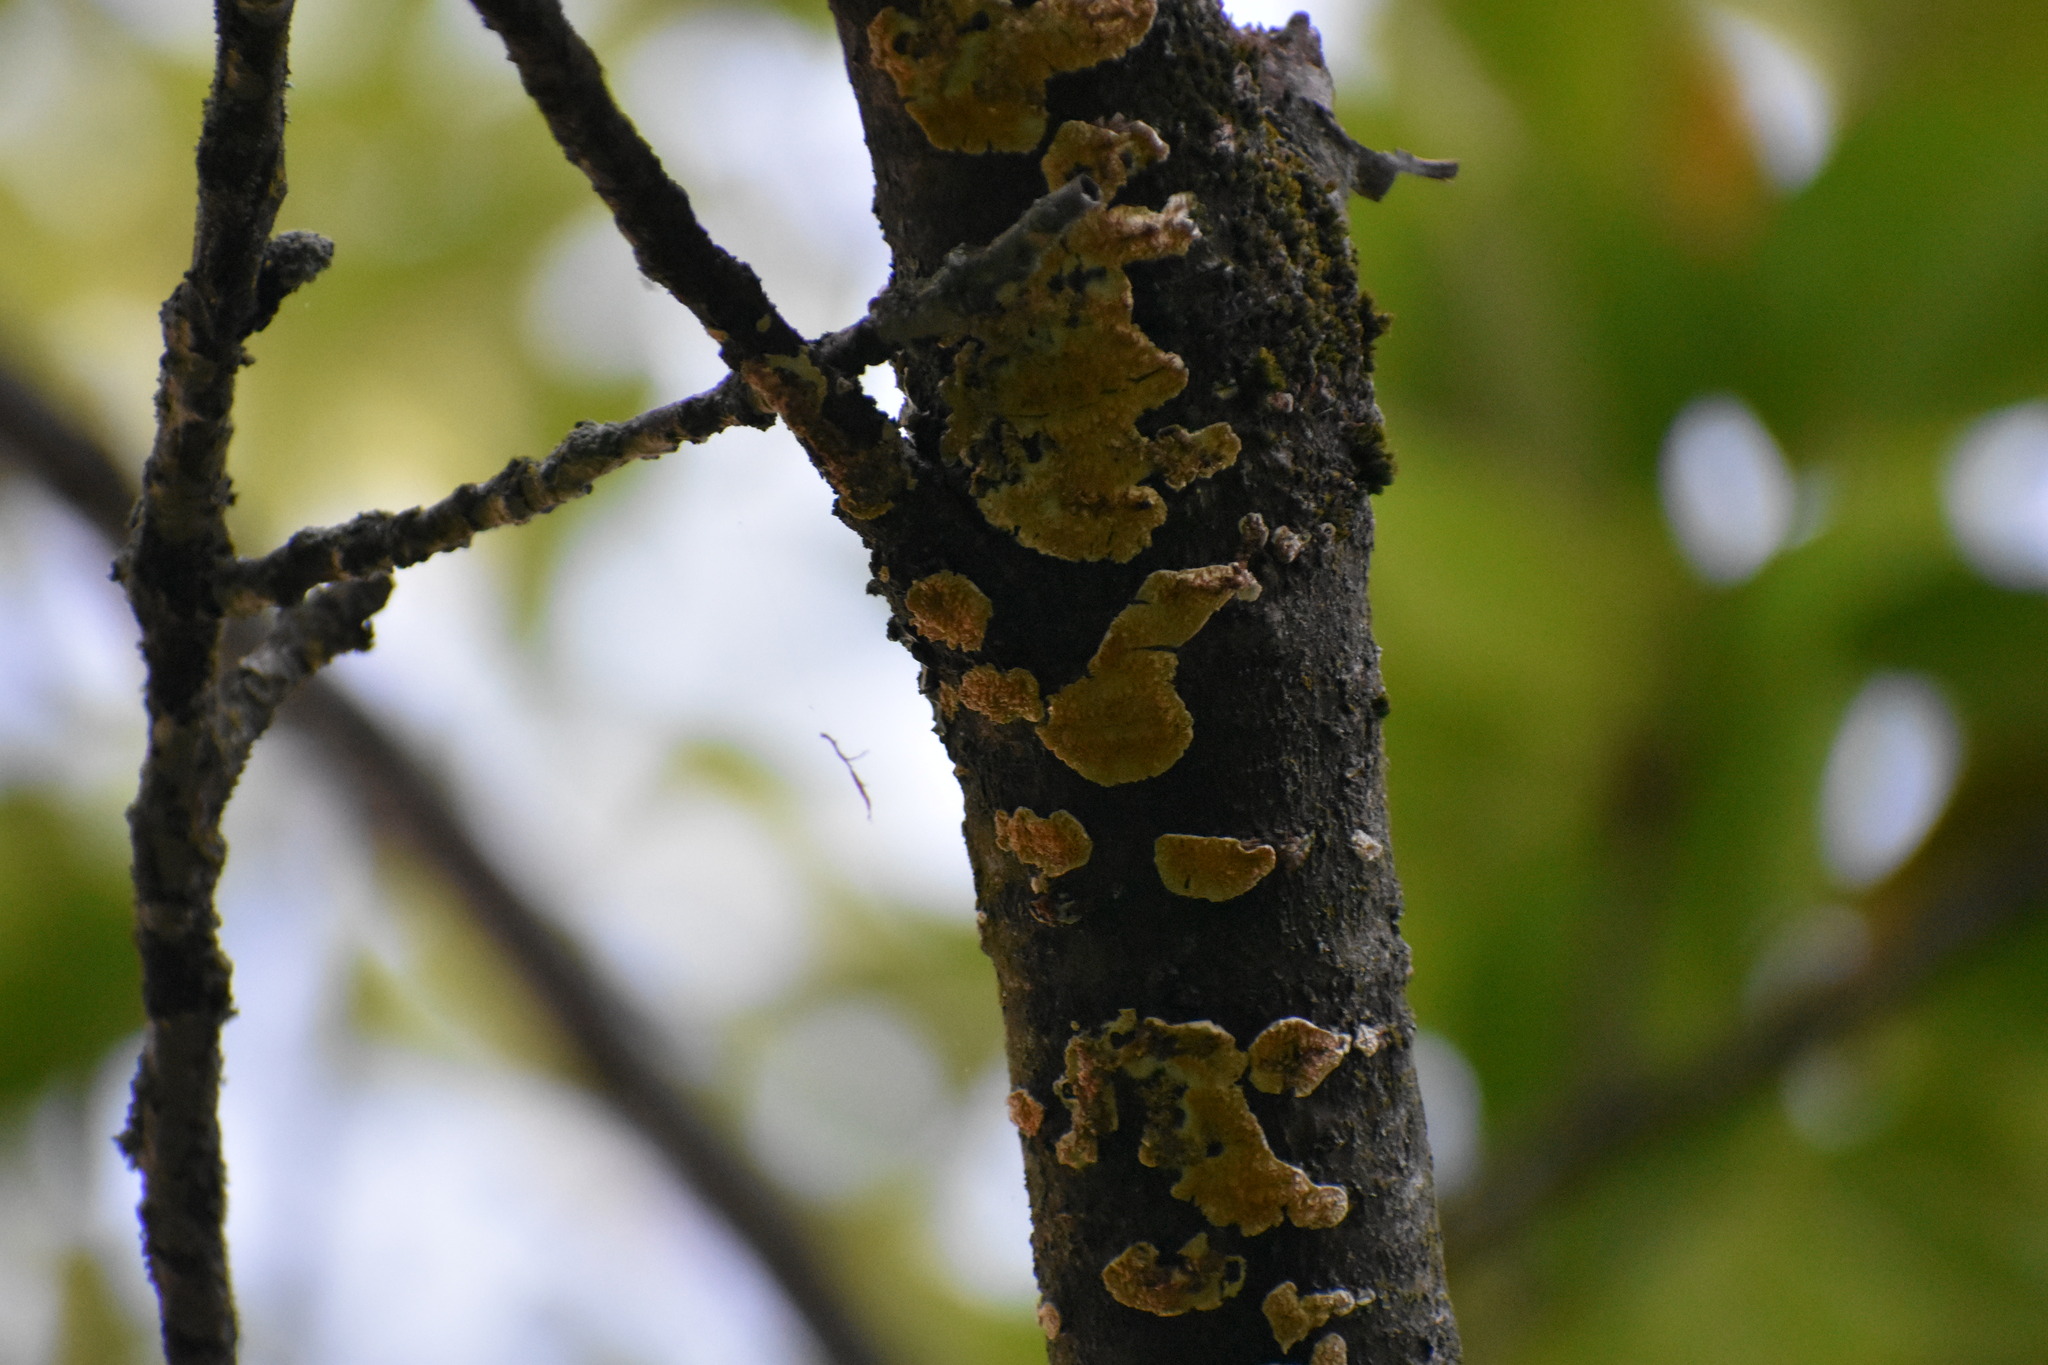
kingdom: Fungi
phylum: Basidiomycota
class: Agaricomycetes
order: Polyporales
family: Irpicaceae
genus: Irpex
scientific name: Irpex lacteus
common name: Milk-white toothed polypore
